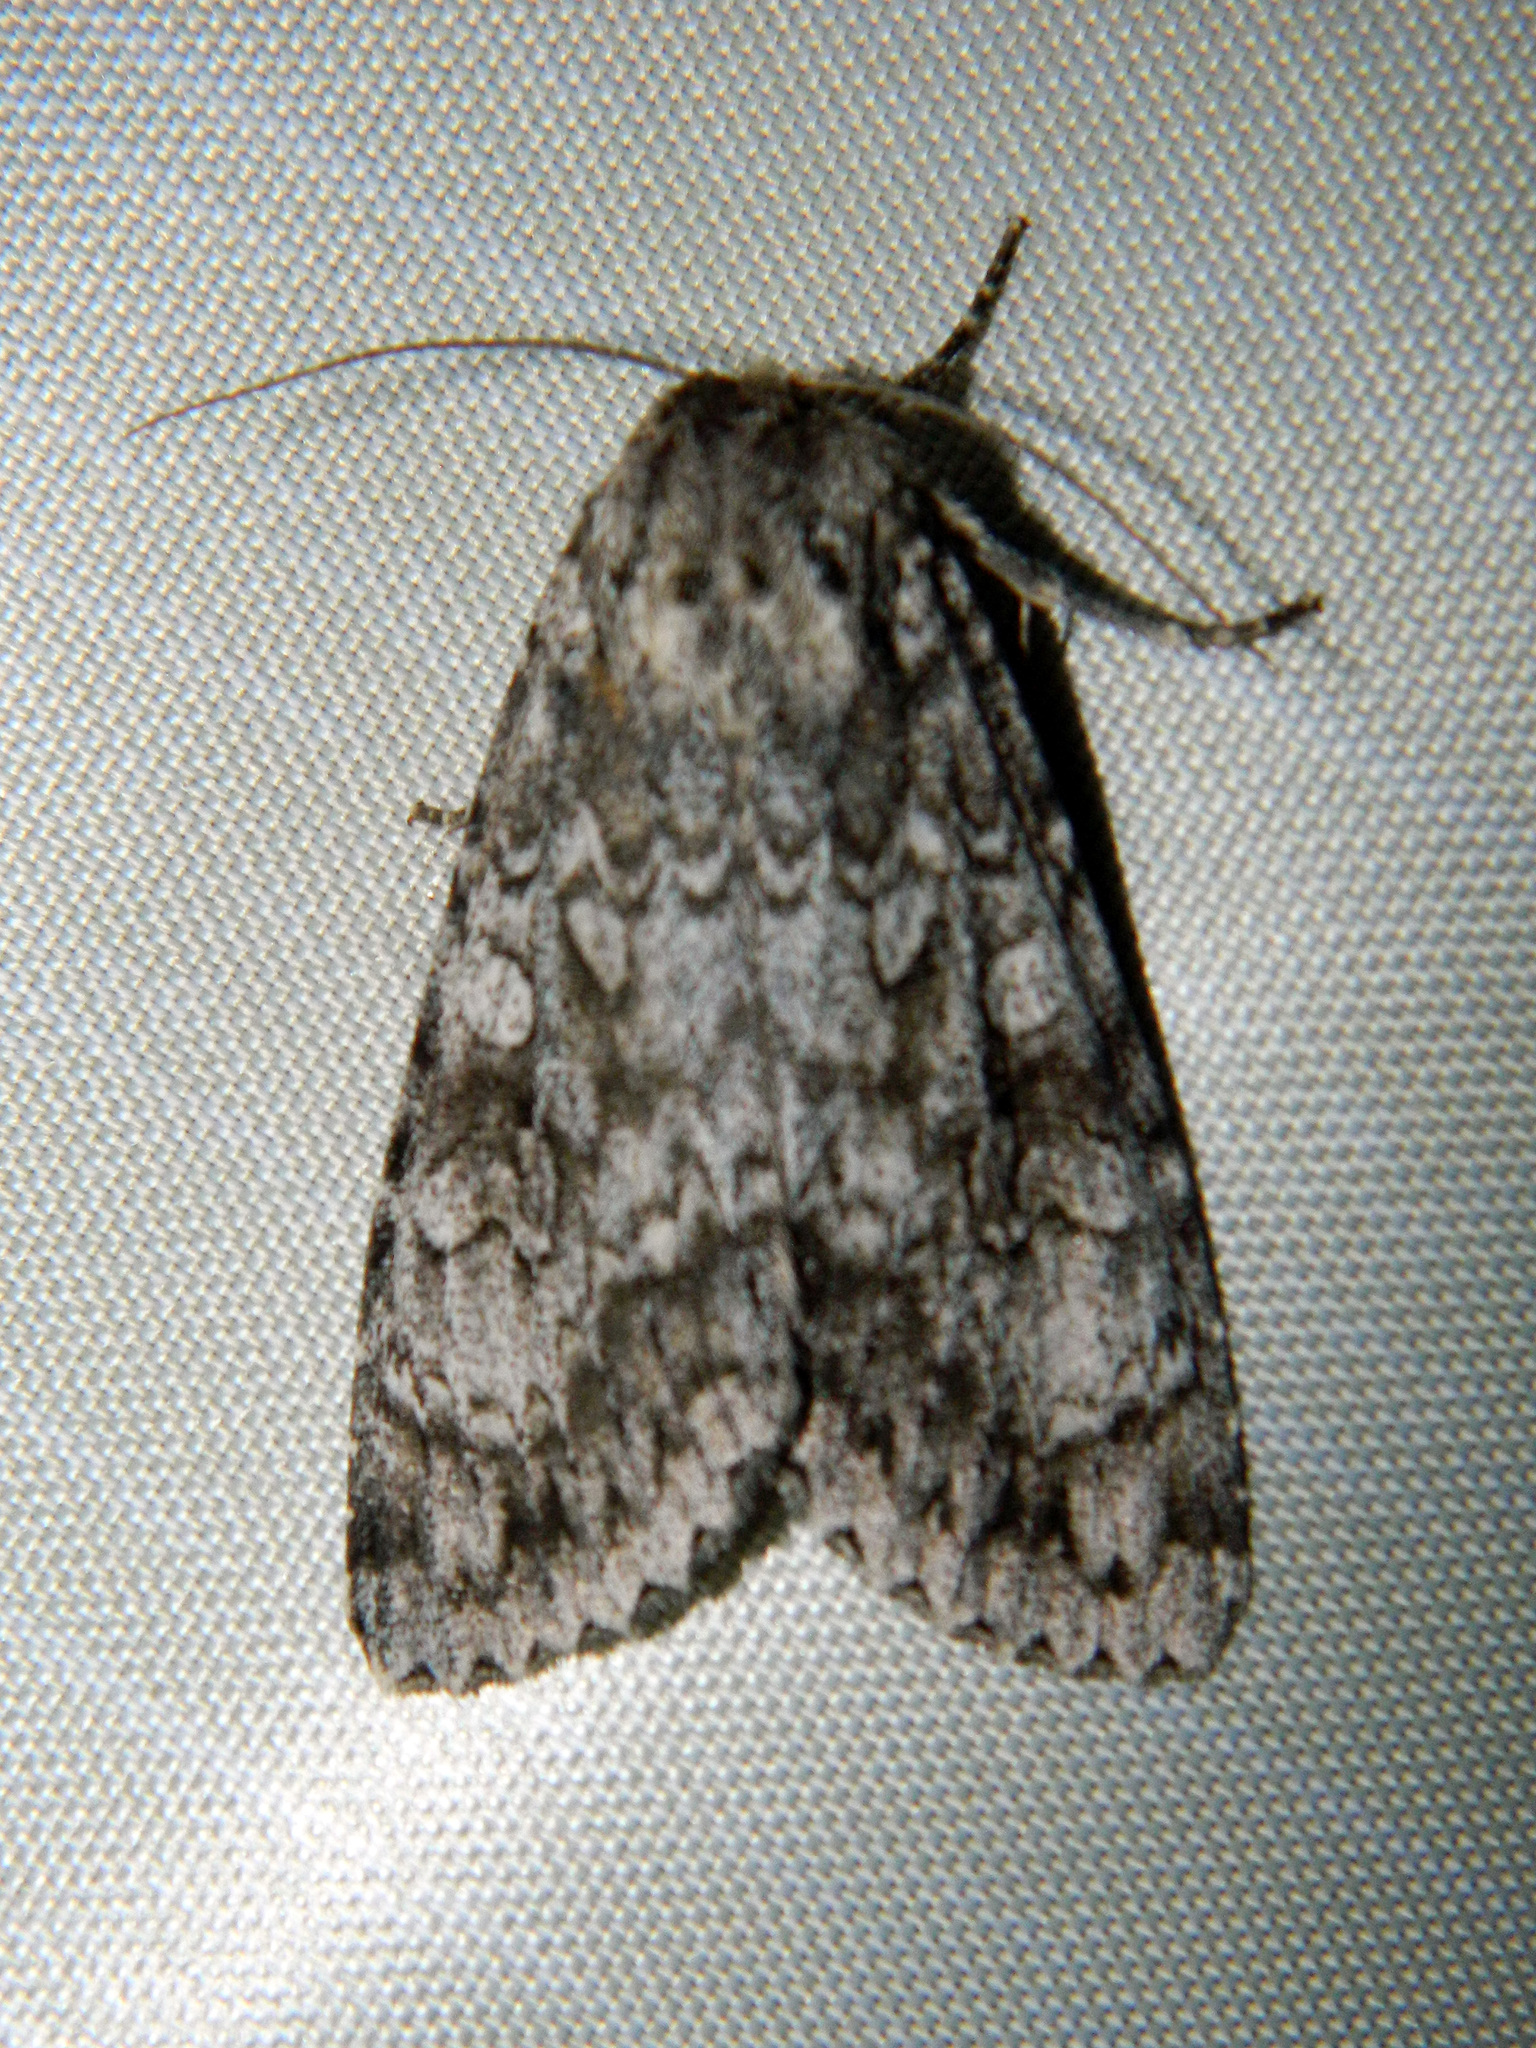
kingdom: Animalia
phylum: Arthropoda
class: Insecta
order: Lepidoptera
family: Noctuidae
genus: Eurois
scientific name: Eurois occulta
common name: Great brocade
